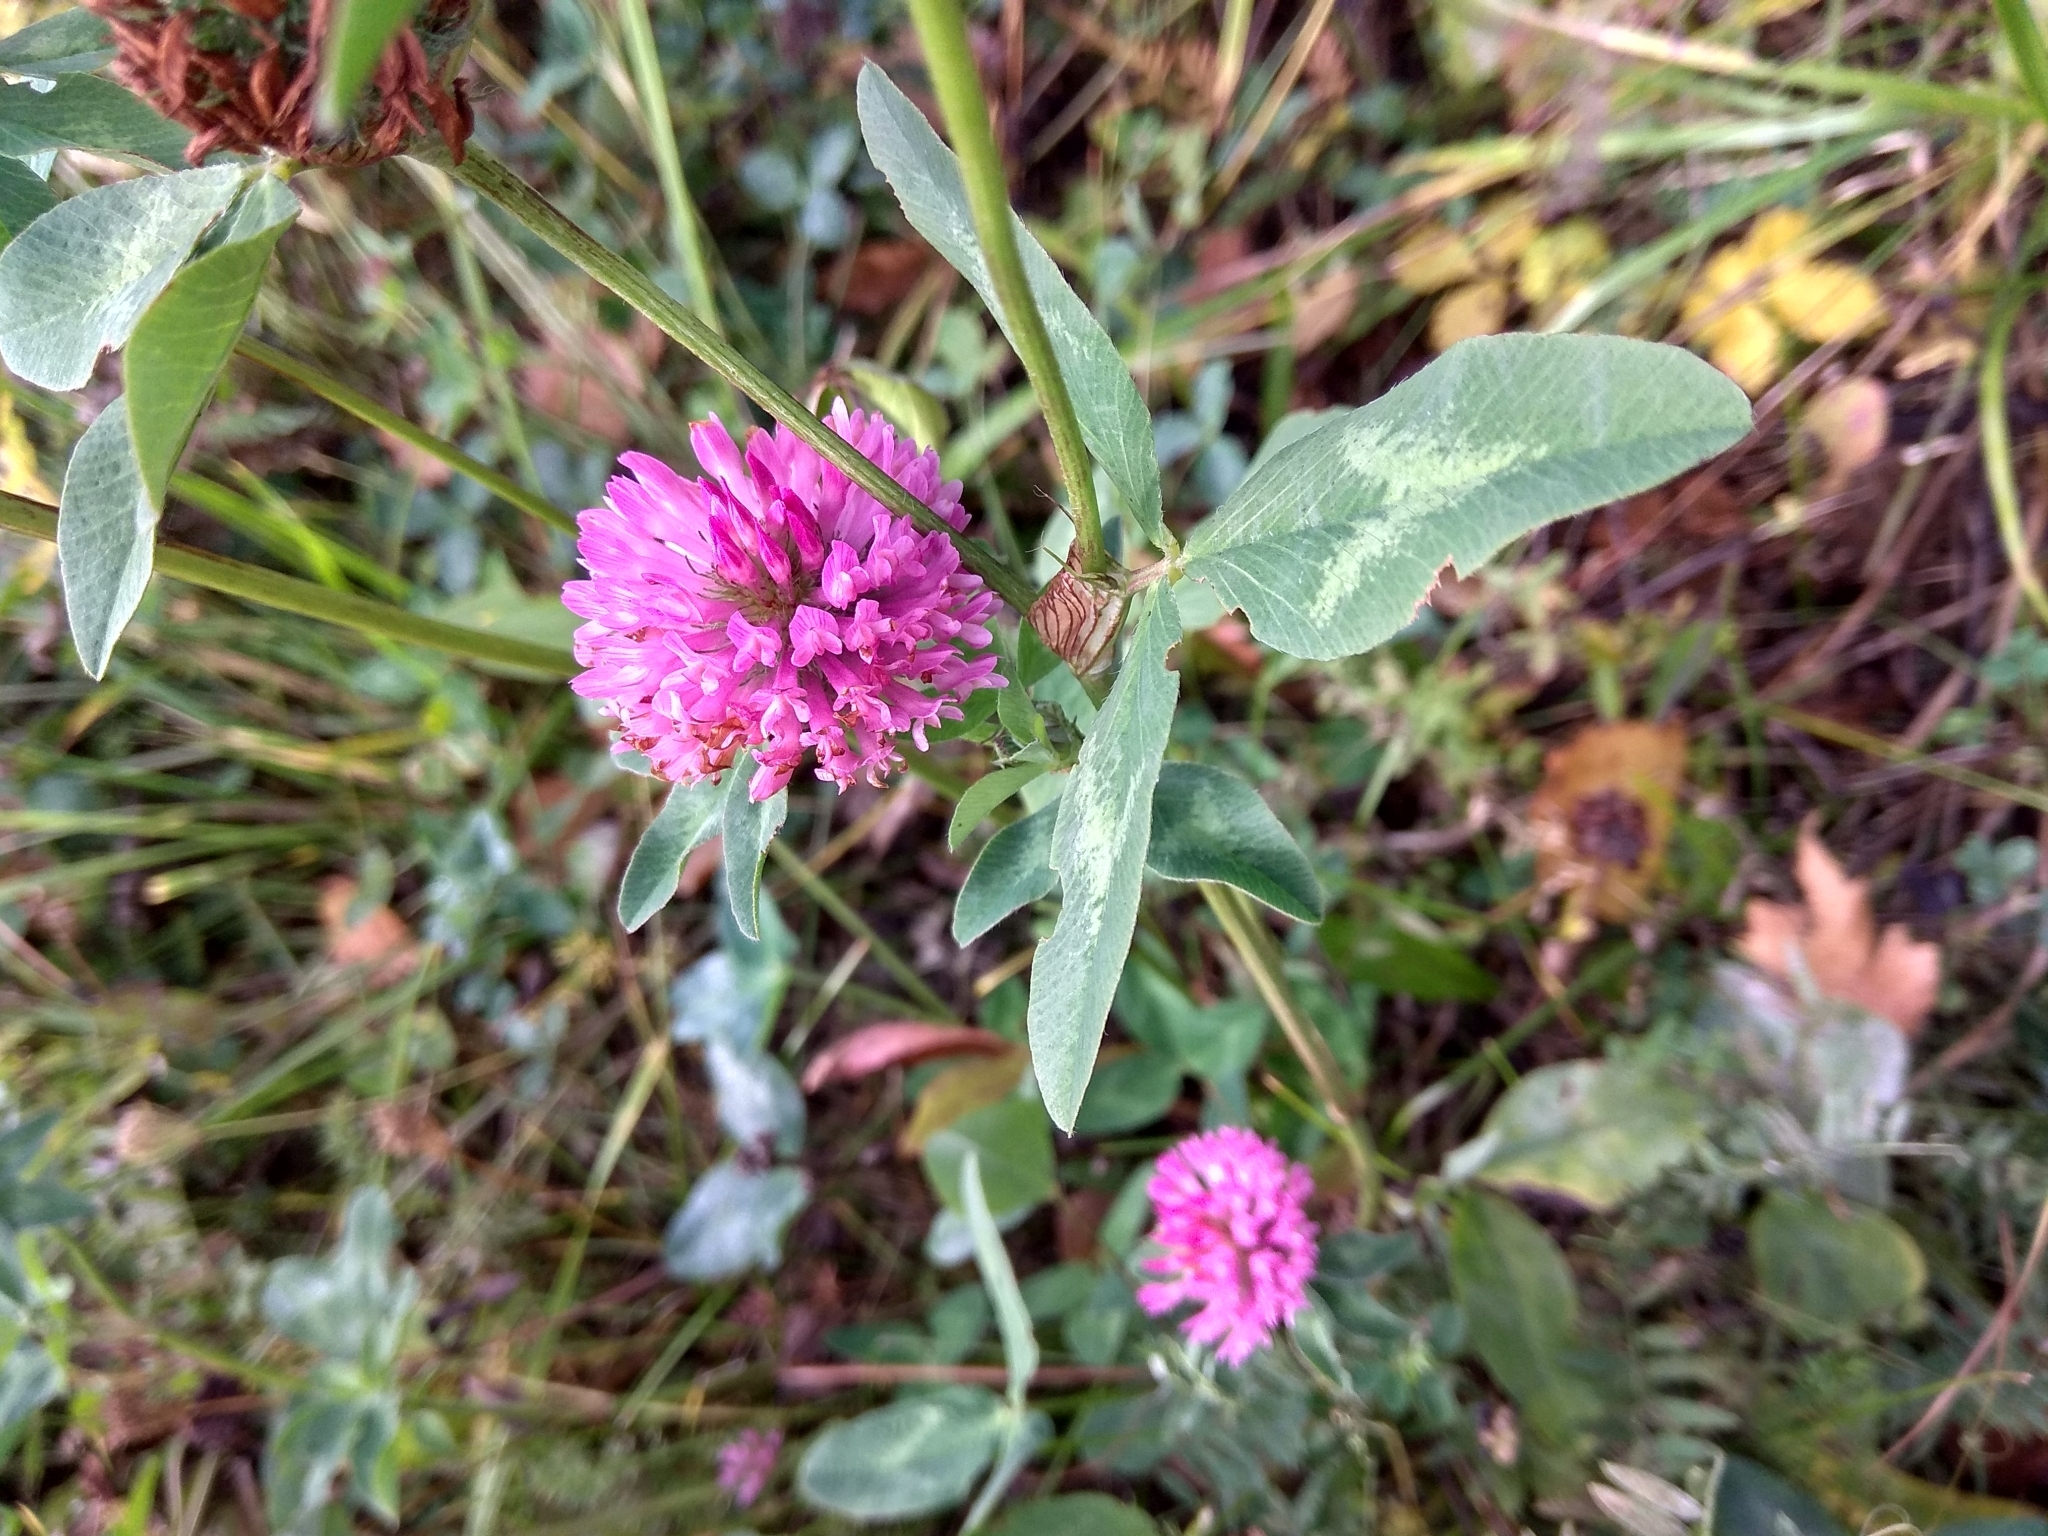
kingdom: Plantae
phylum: Tracheophyta
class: Magnoliopsida
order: Fabales
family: Fabaceae
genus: Trifolium
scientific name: Trifolium pratense
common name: Red clover
